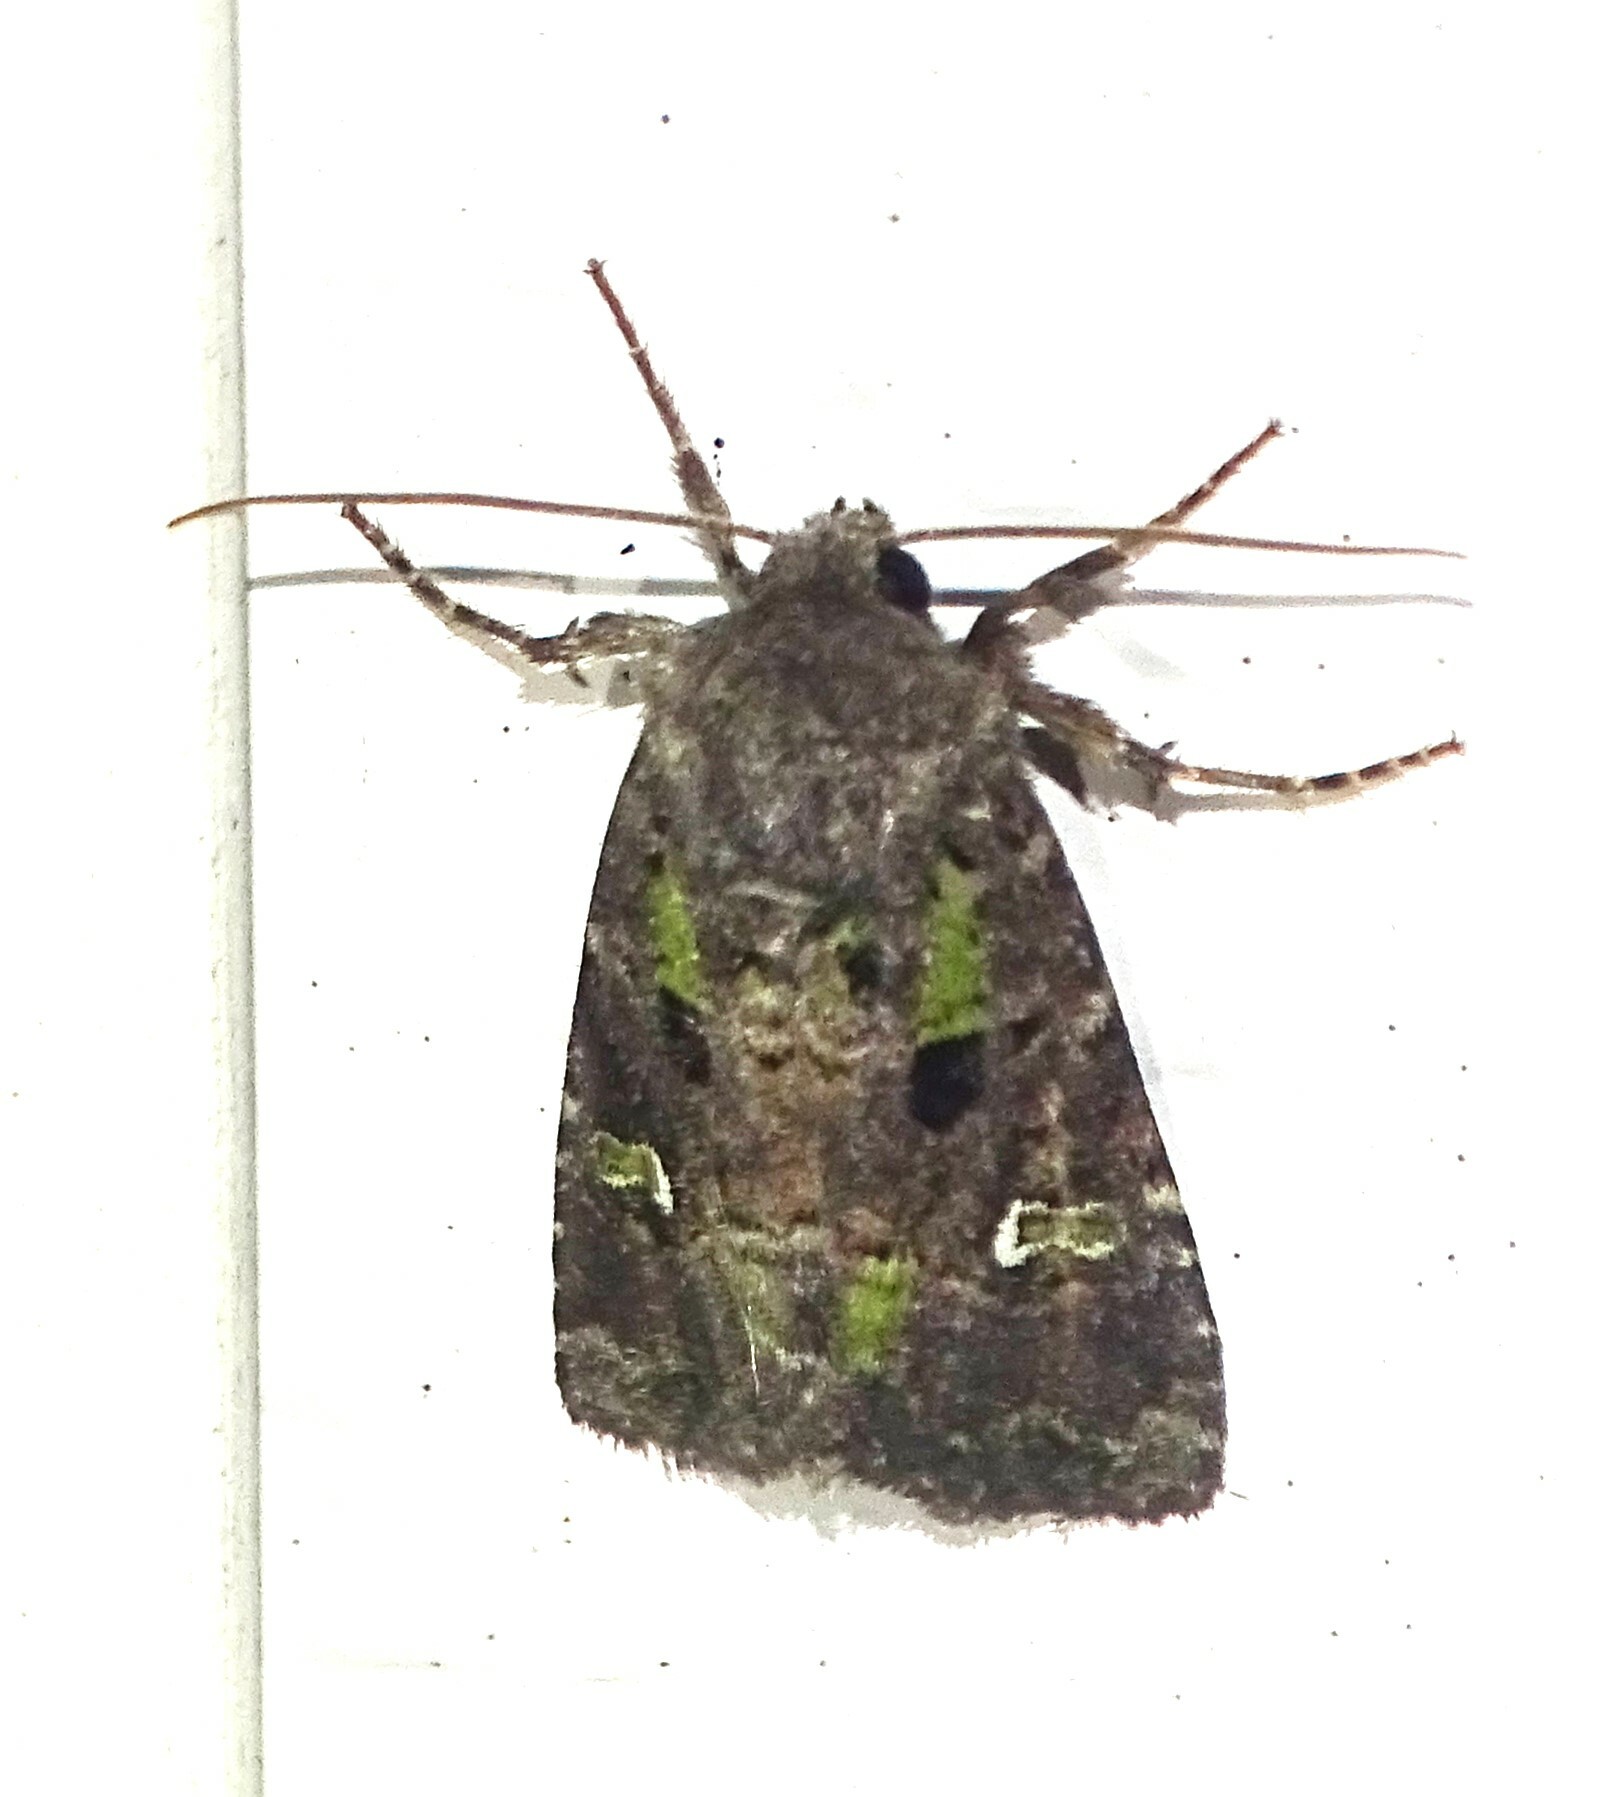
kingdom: Animalia
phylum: Arthropoda
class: Insecta
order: Lepidoptera
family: Noctuidae
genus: Lacinipolia
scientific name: Lacinipolia renigera
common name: Kidney-spotted minor
